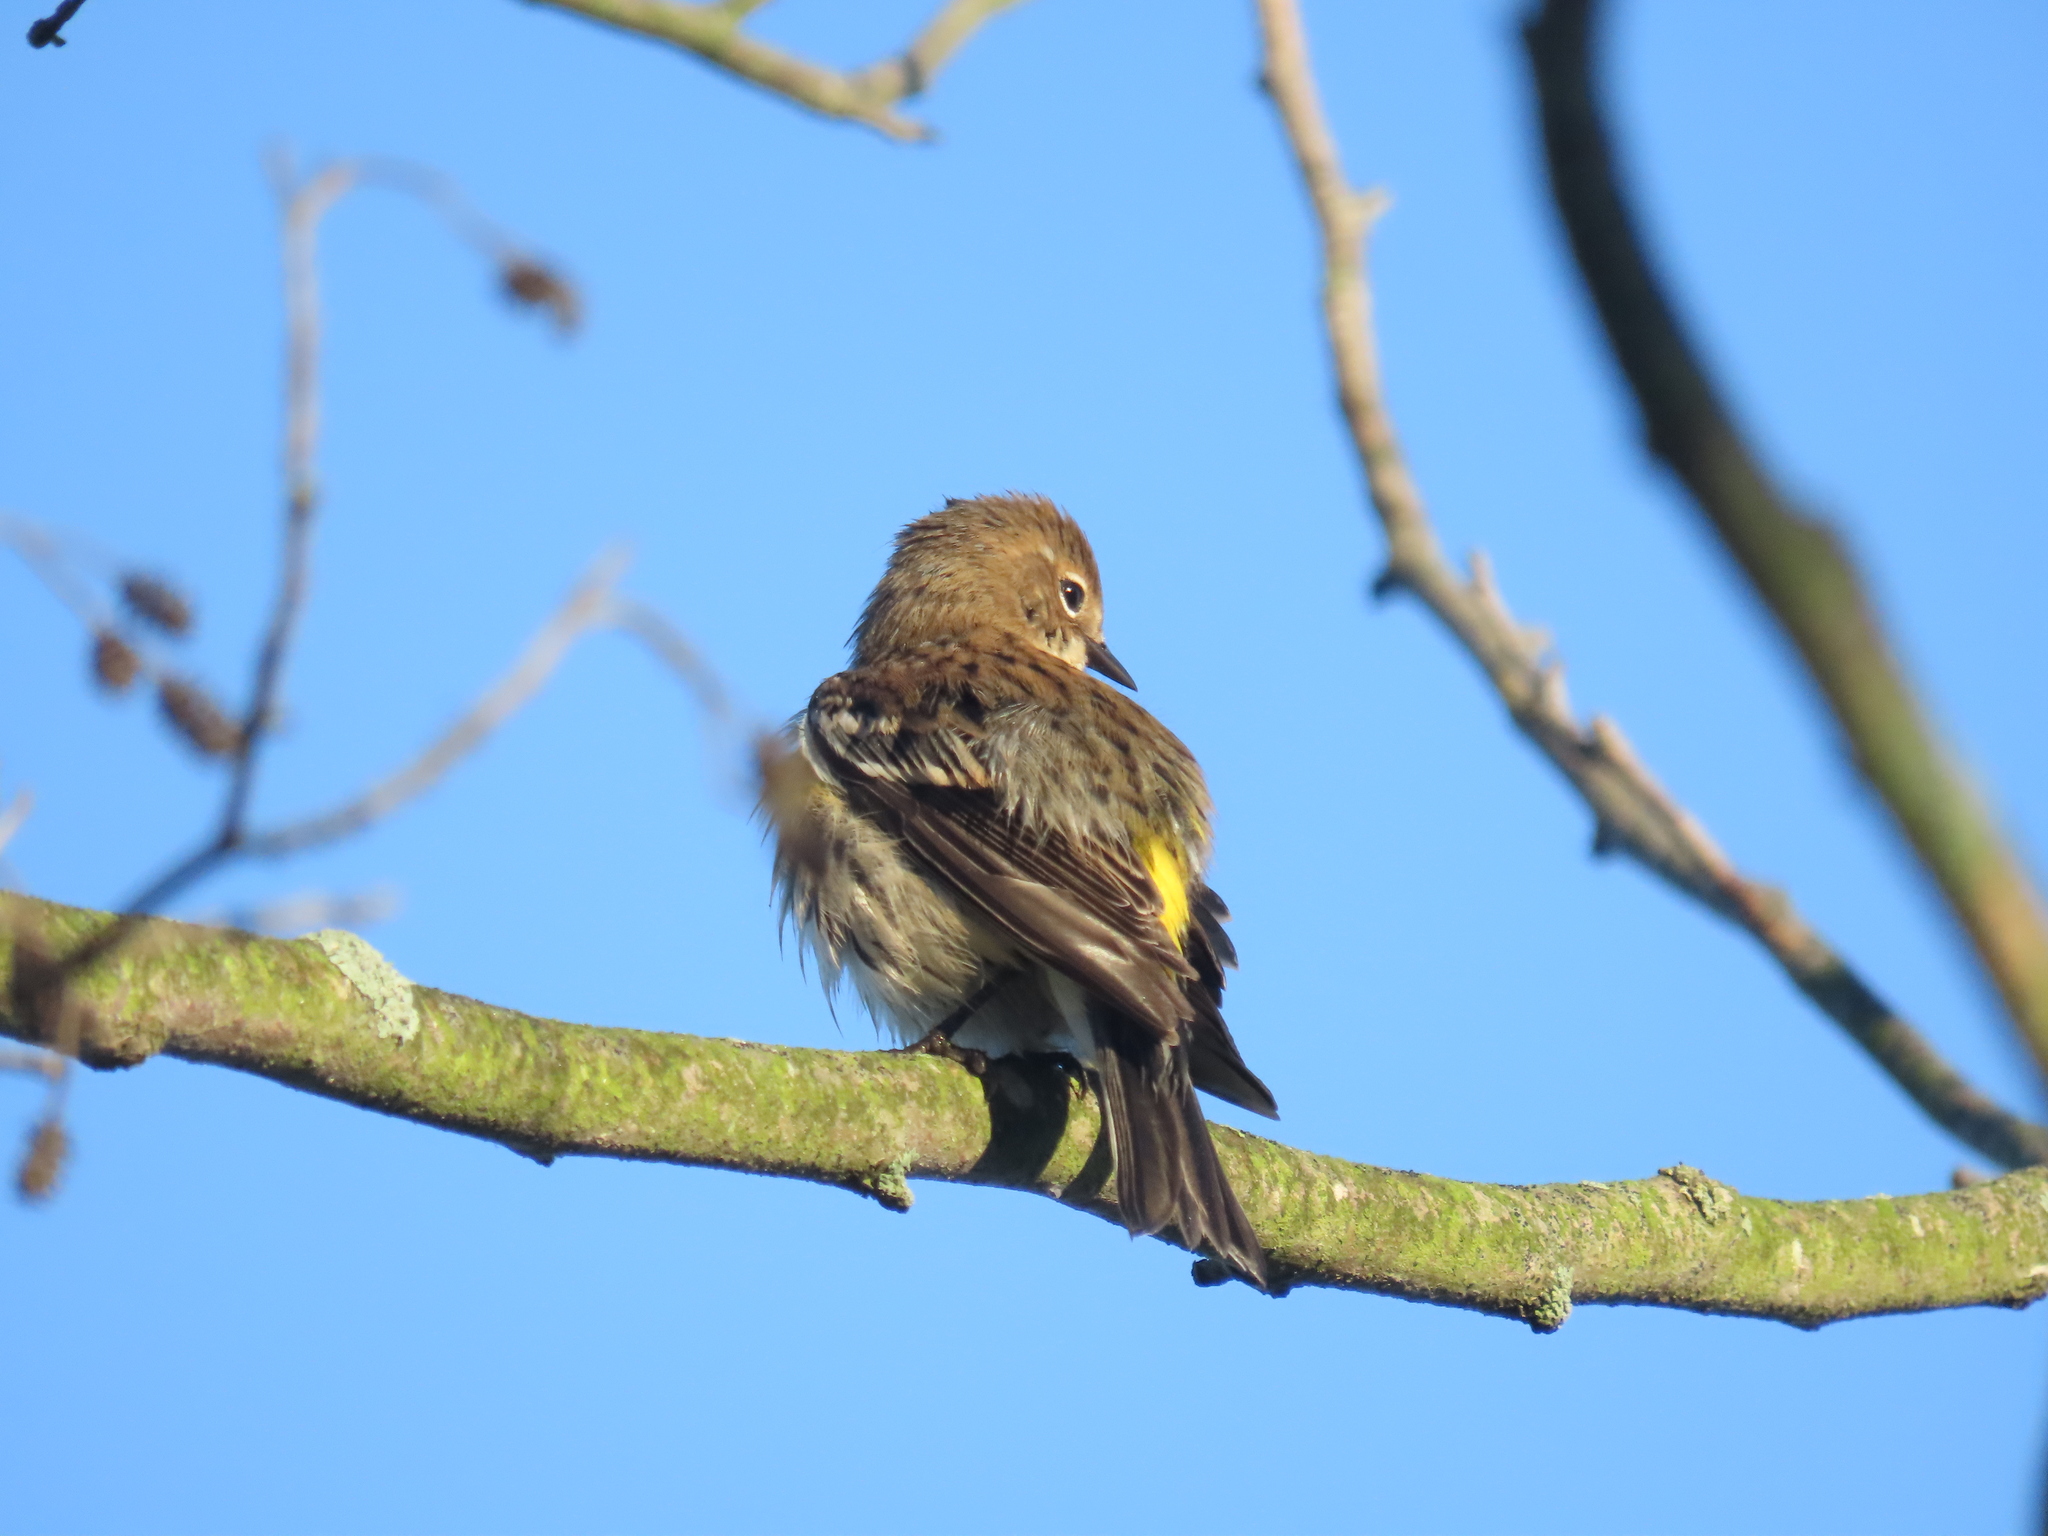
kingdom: Animalia
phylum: Chordata
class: Aves
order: Passeriformes
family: Parulidae
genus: Setophaga
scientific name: Setophaga coronata
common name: Myrtle warbler
